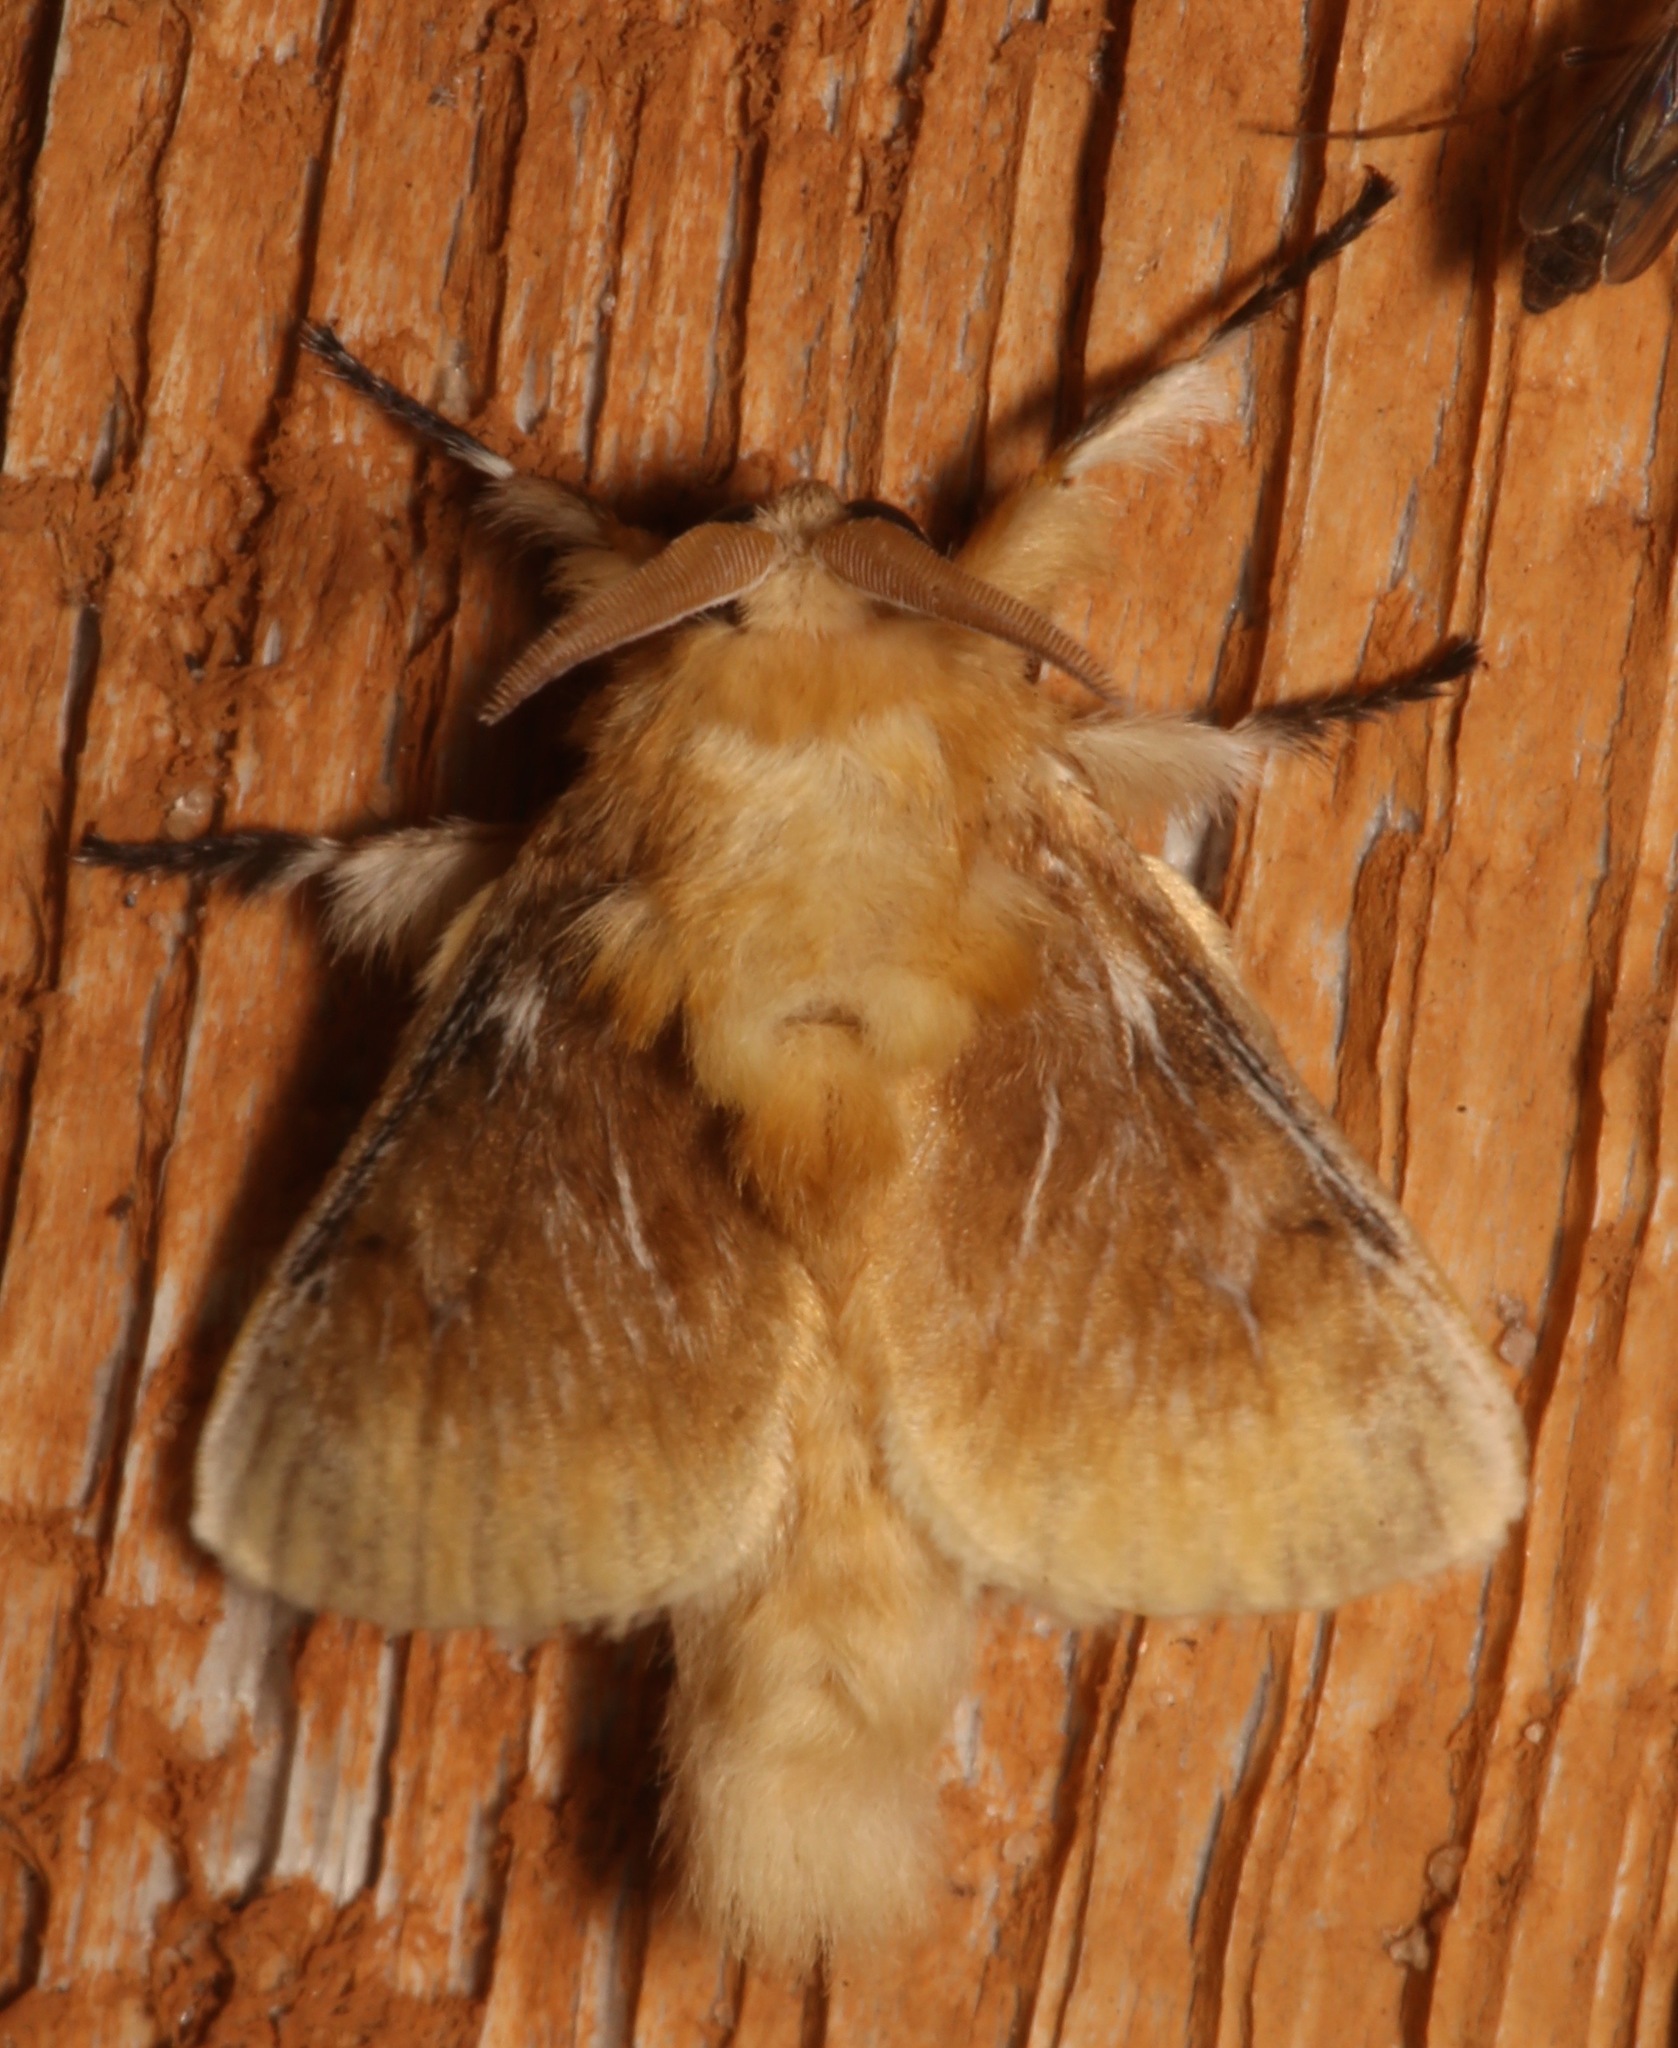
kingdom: Animalia
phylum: Arthropoda
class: Insecta
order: Lepidoptera
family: Megalopygidae
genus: Megalopyge
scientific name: Megalopyge opercularis
